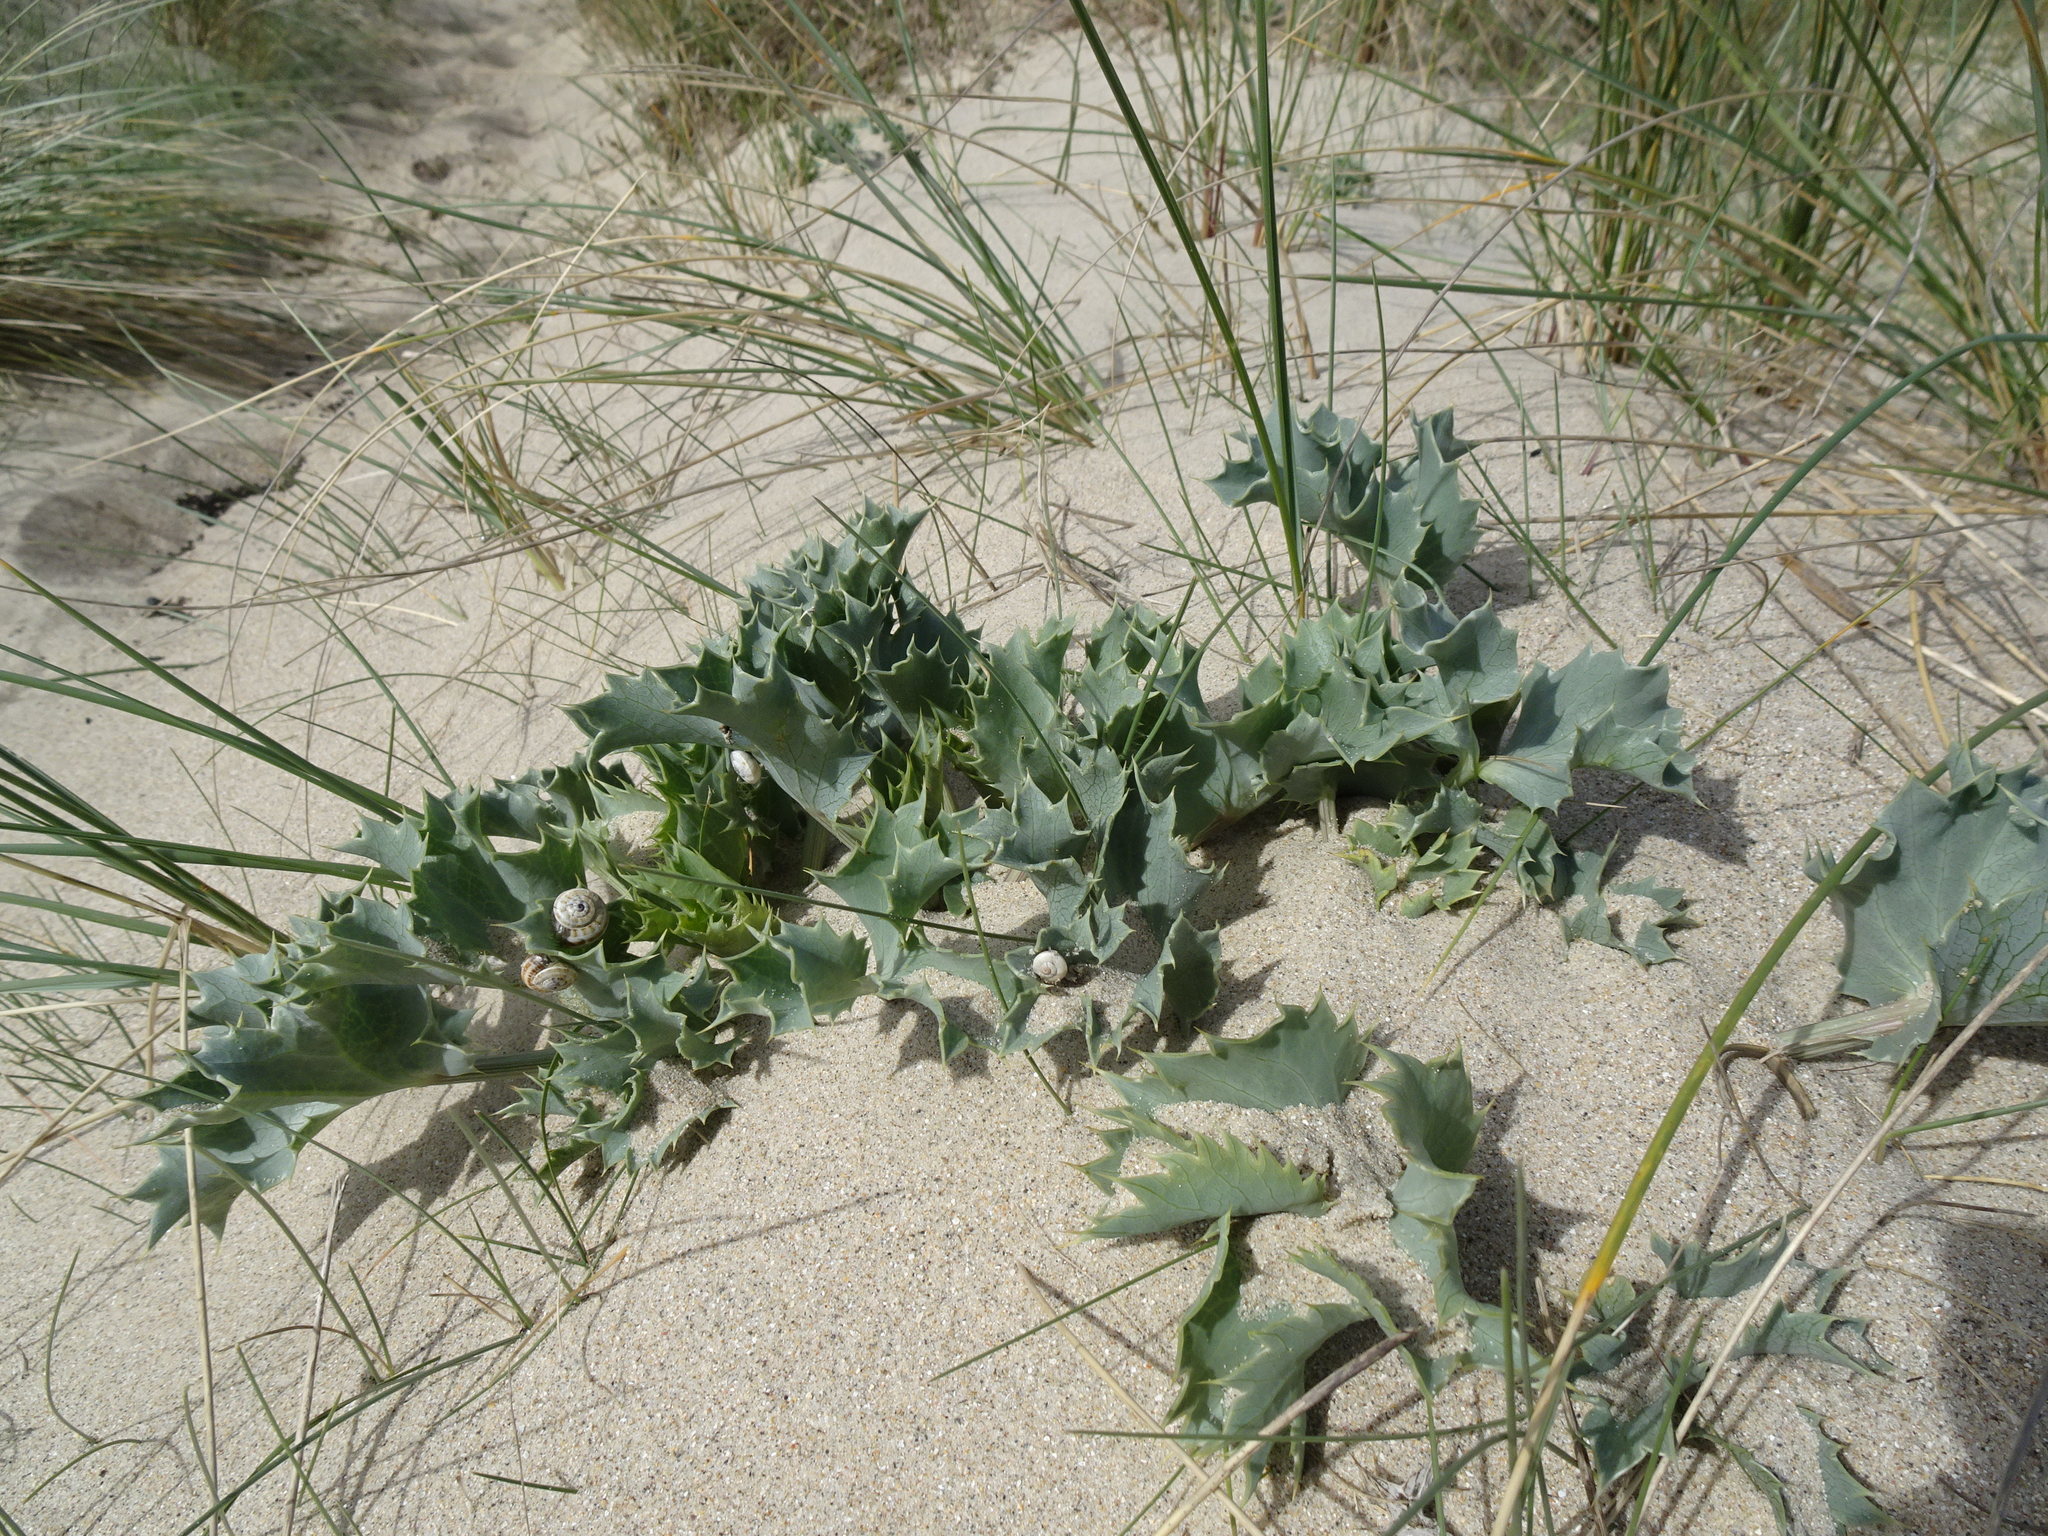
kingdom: Plantae
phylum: Tracheophyta
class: Magnoliopsida
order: Apiales
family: Apiaceae
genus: Eryngium
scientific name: Eryngium maritimum
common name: Sea-holly
